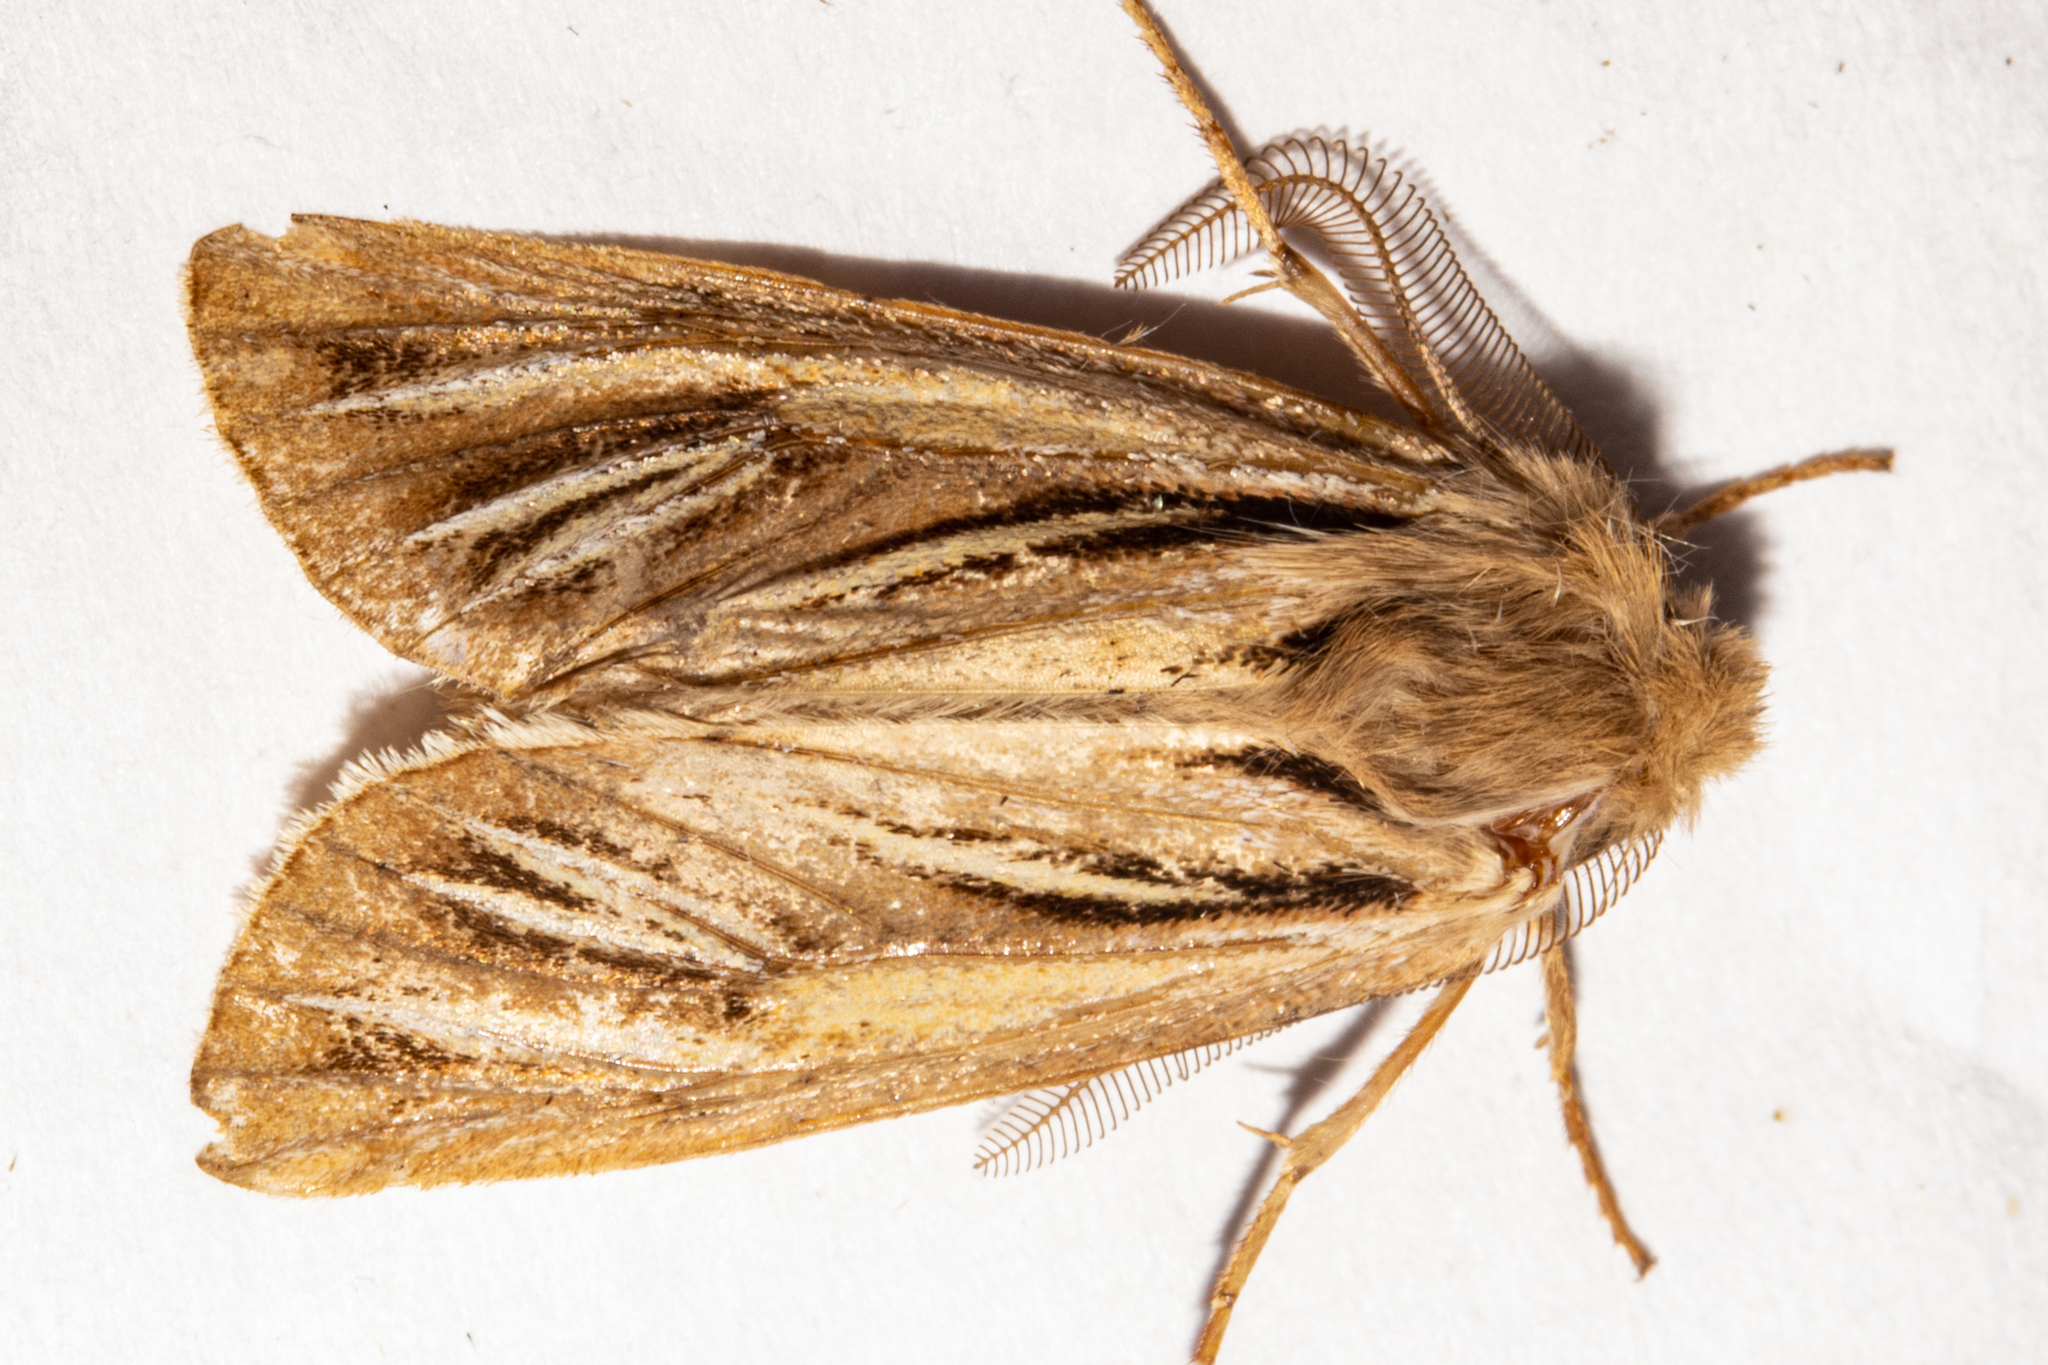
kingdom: Animalia
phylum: Arthropoda
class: Insecta
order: Lepidoptera
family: Noctuidae
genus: Ichneutica
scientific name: Ichneutica caraunias
